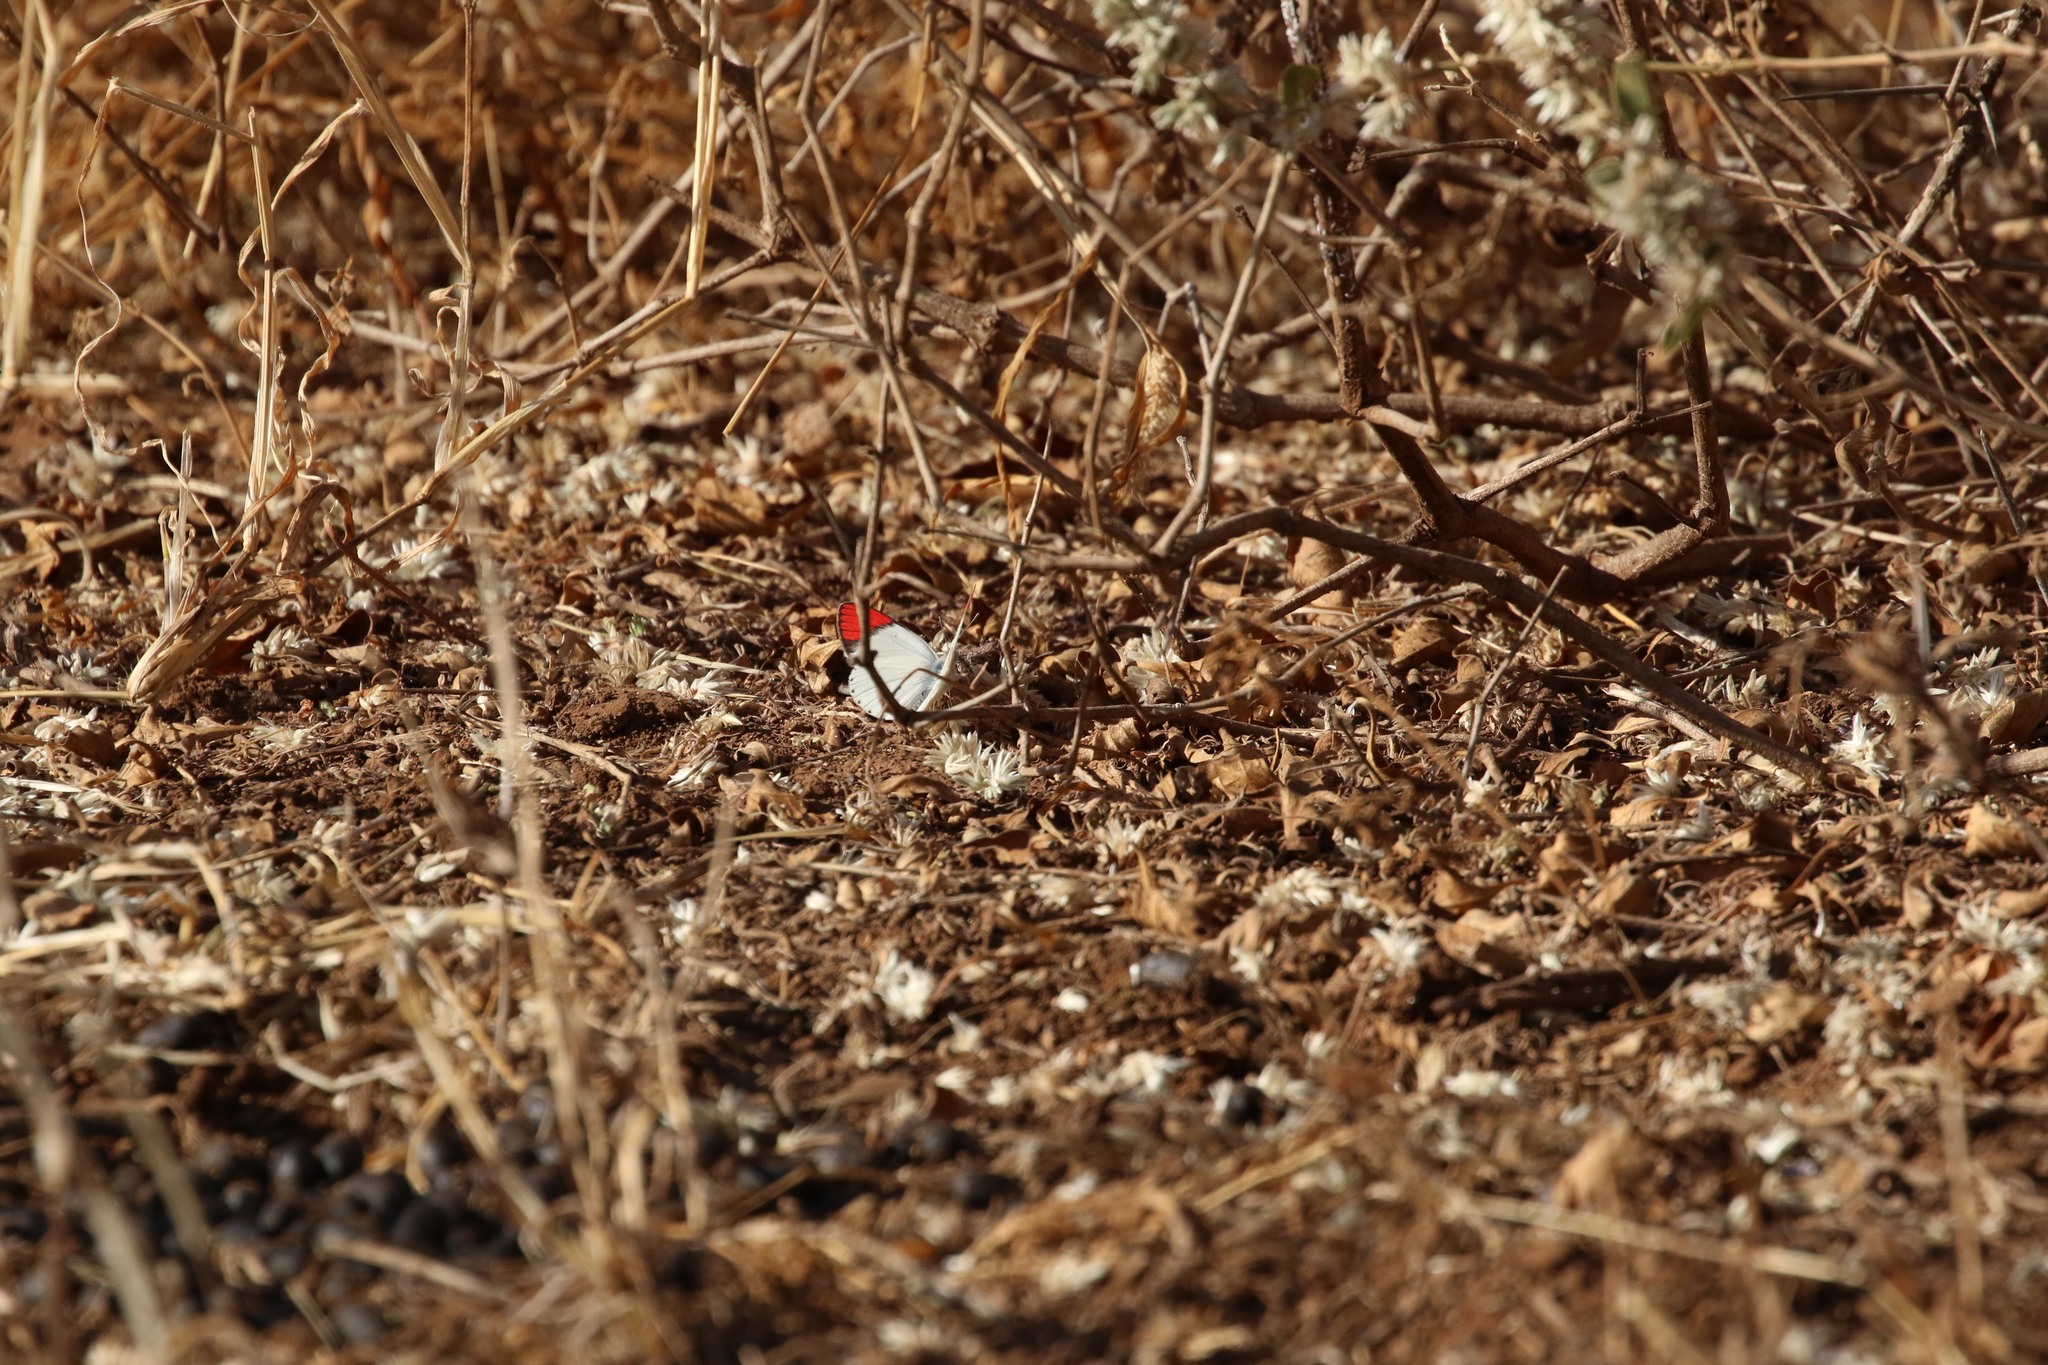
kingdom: Animalia
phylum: Arthropoda
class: Insecta
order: Lepidoptera
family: Pieridae
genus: Colotis
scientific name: Colotis danae
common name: Crimson tip
